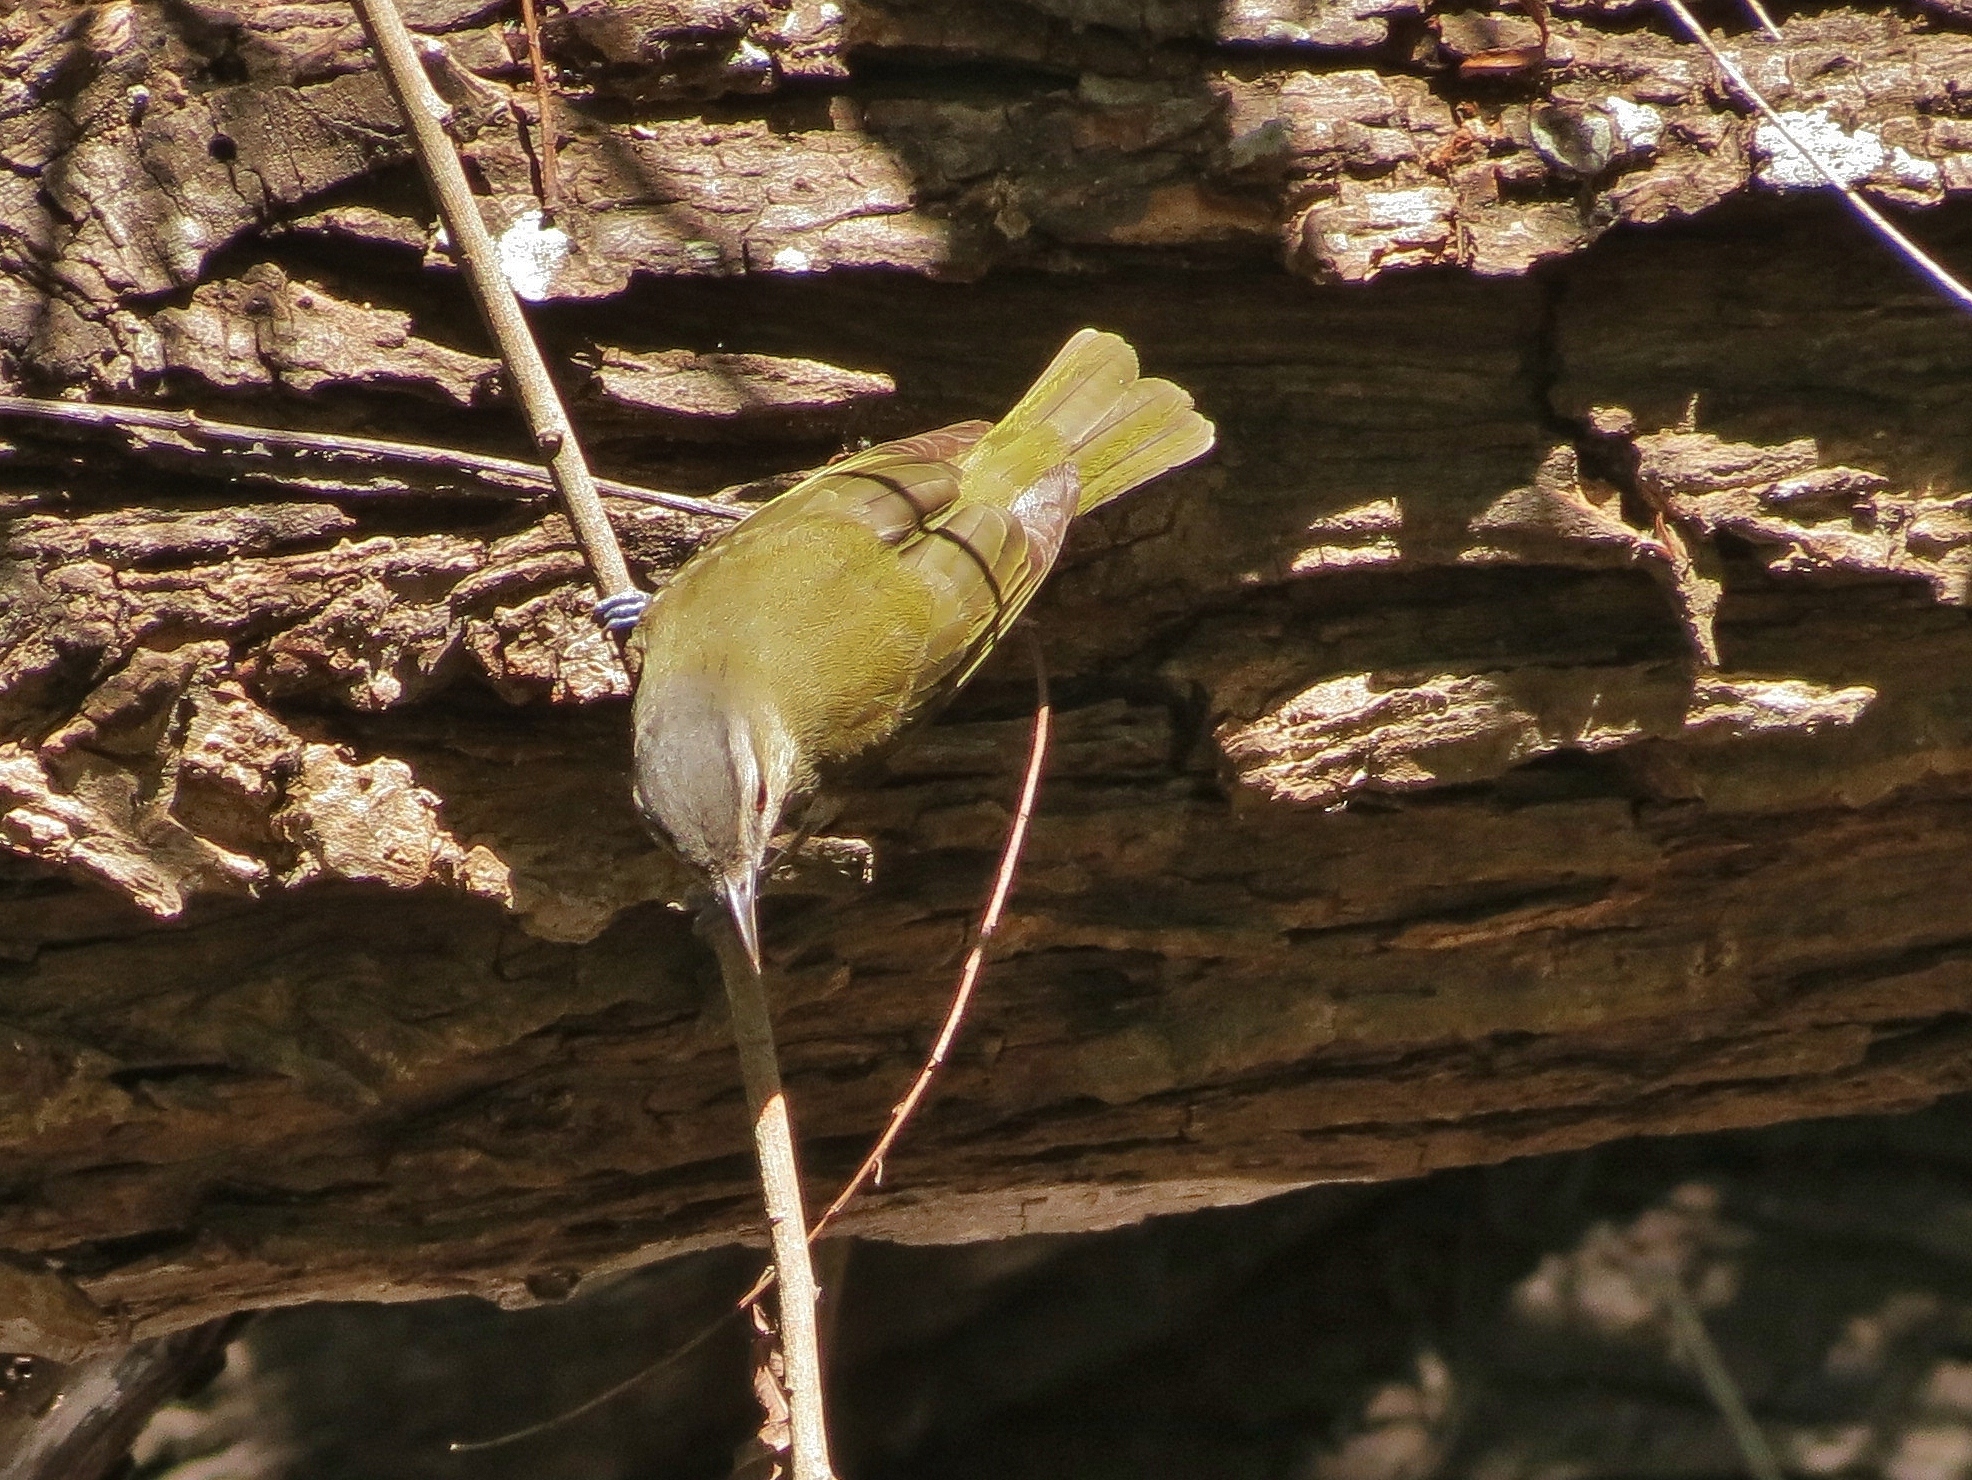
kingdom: Animalia
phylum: Chordata
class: Aves
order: Passeriformes
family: Vireonidae
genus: Vireo
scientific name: Vireo olivaceus
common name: Red-eyed vireo
